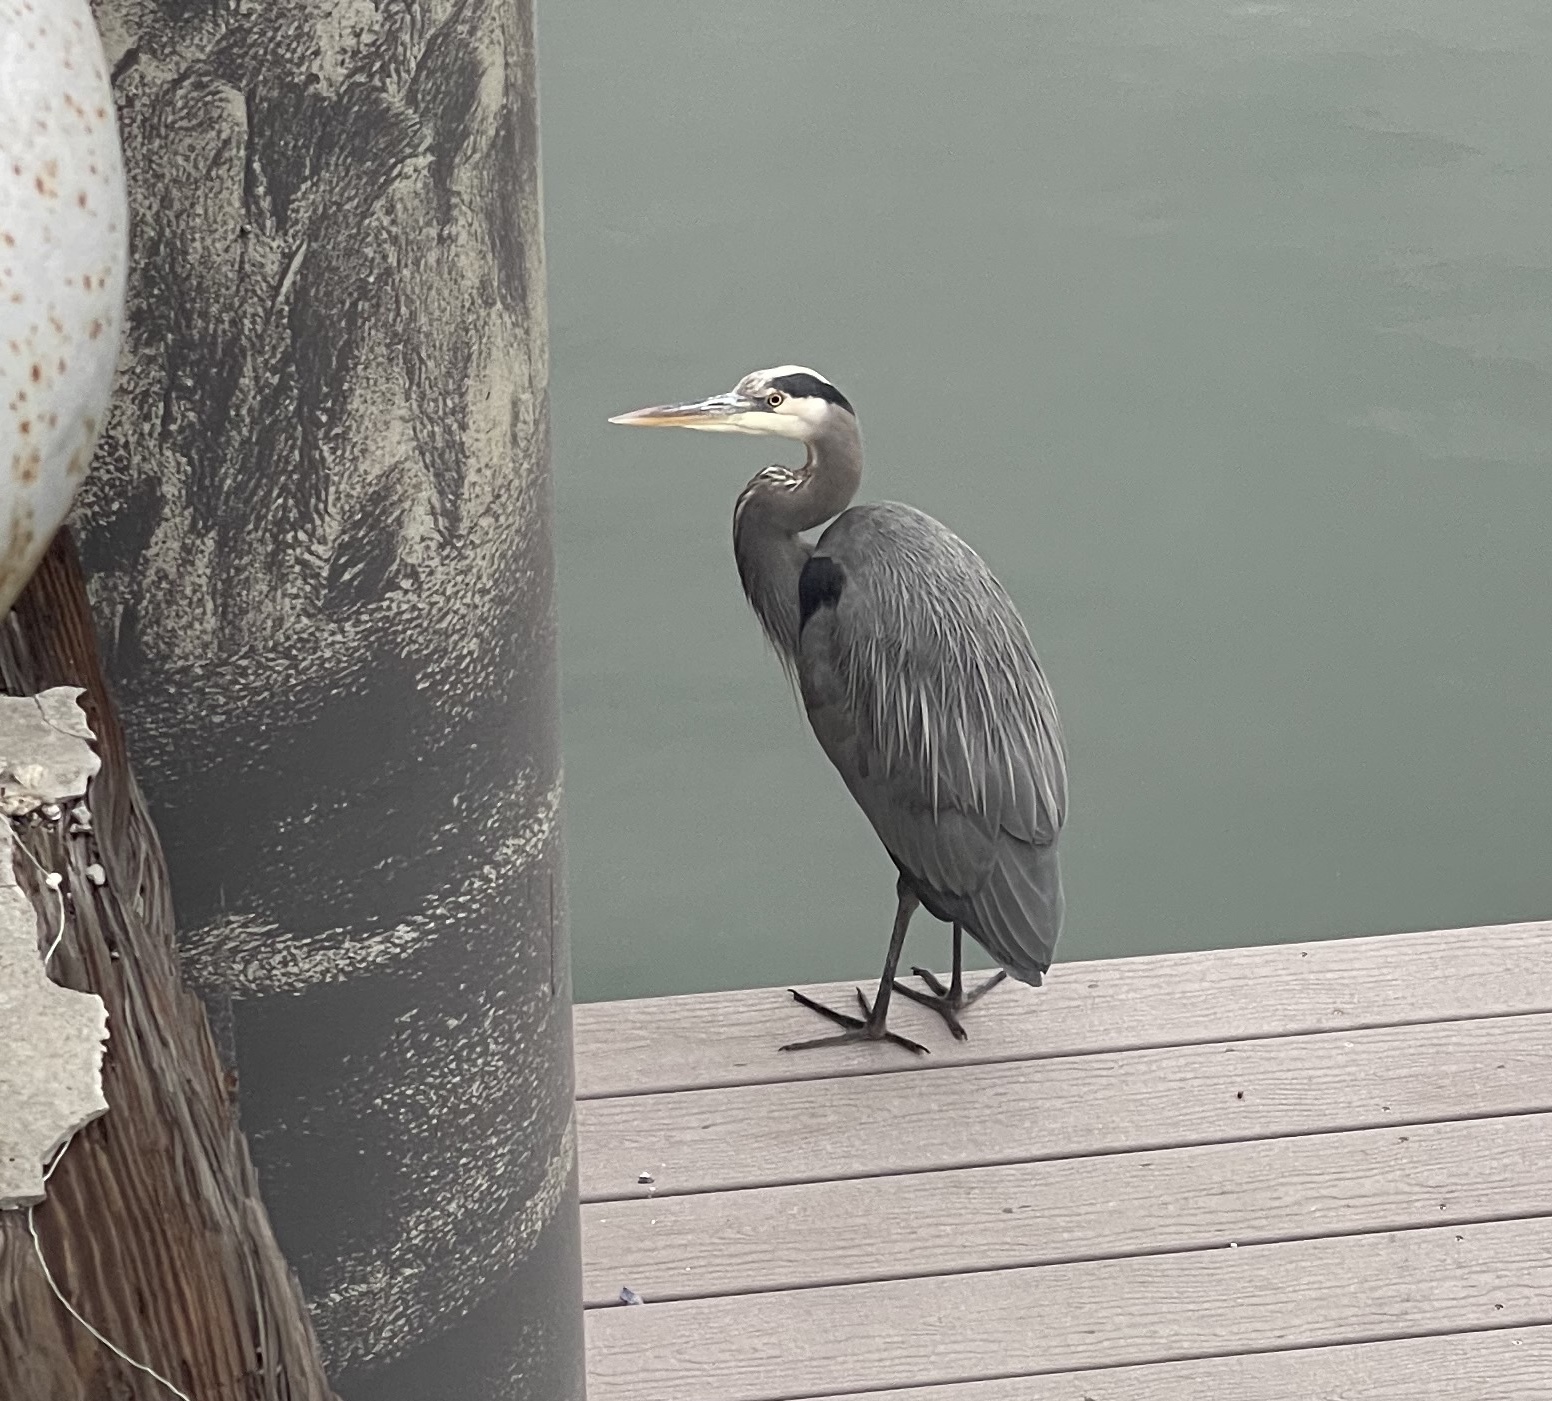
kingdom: Animalia
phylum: Chordata
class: Aves
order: Pelecaniformes
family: Ardeidae
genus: Ardea
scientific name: Ardea herodias
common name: Great blue heron
